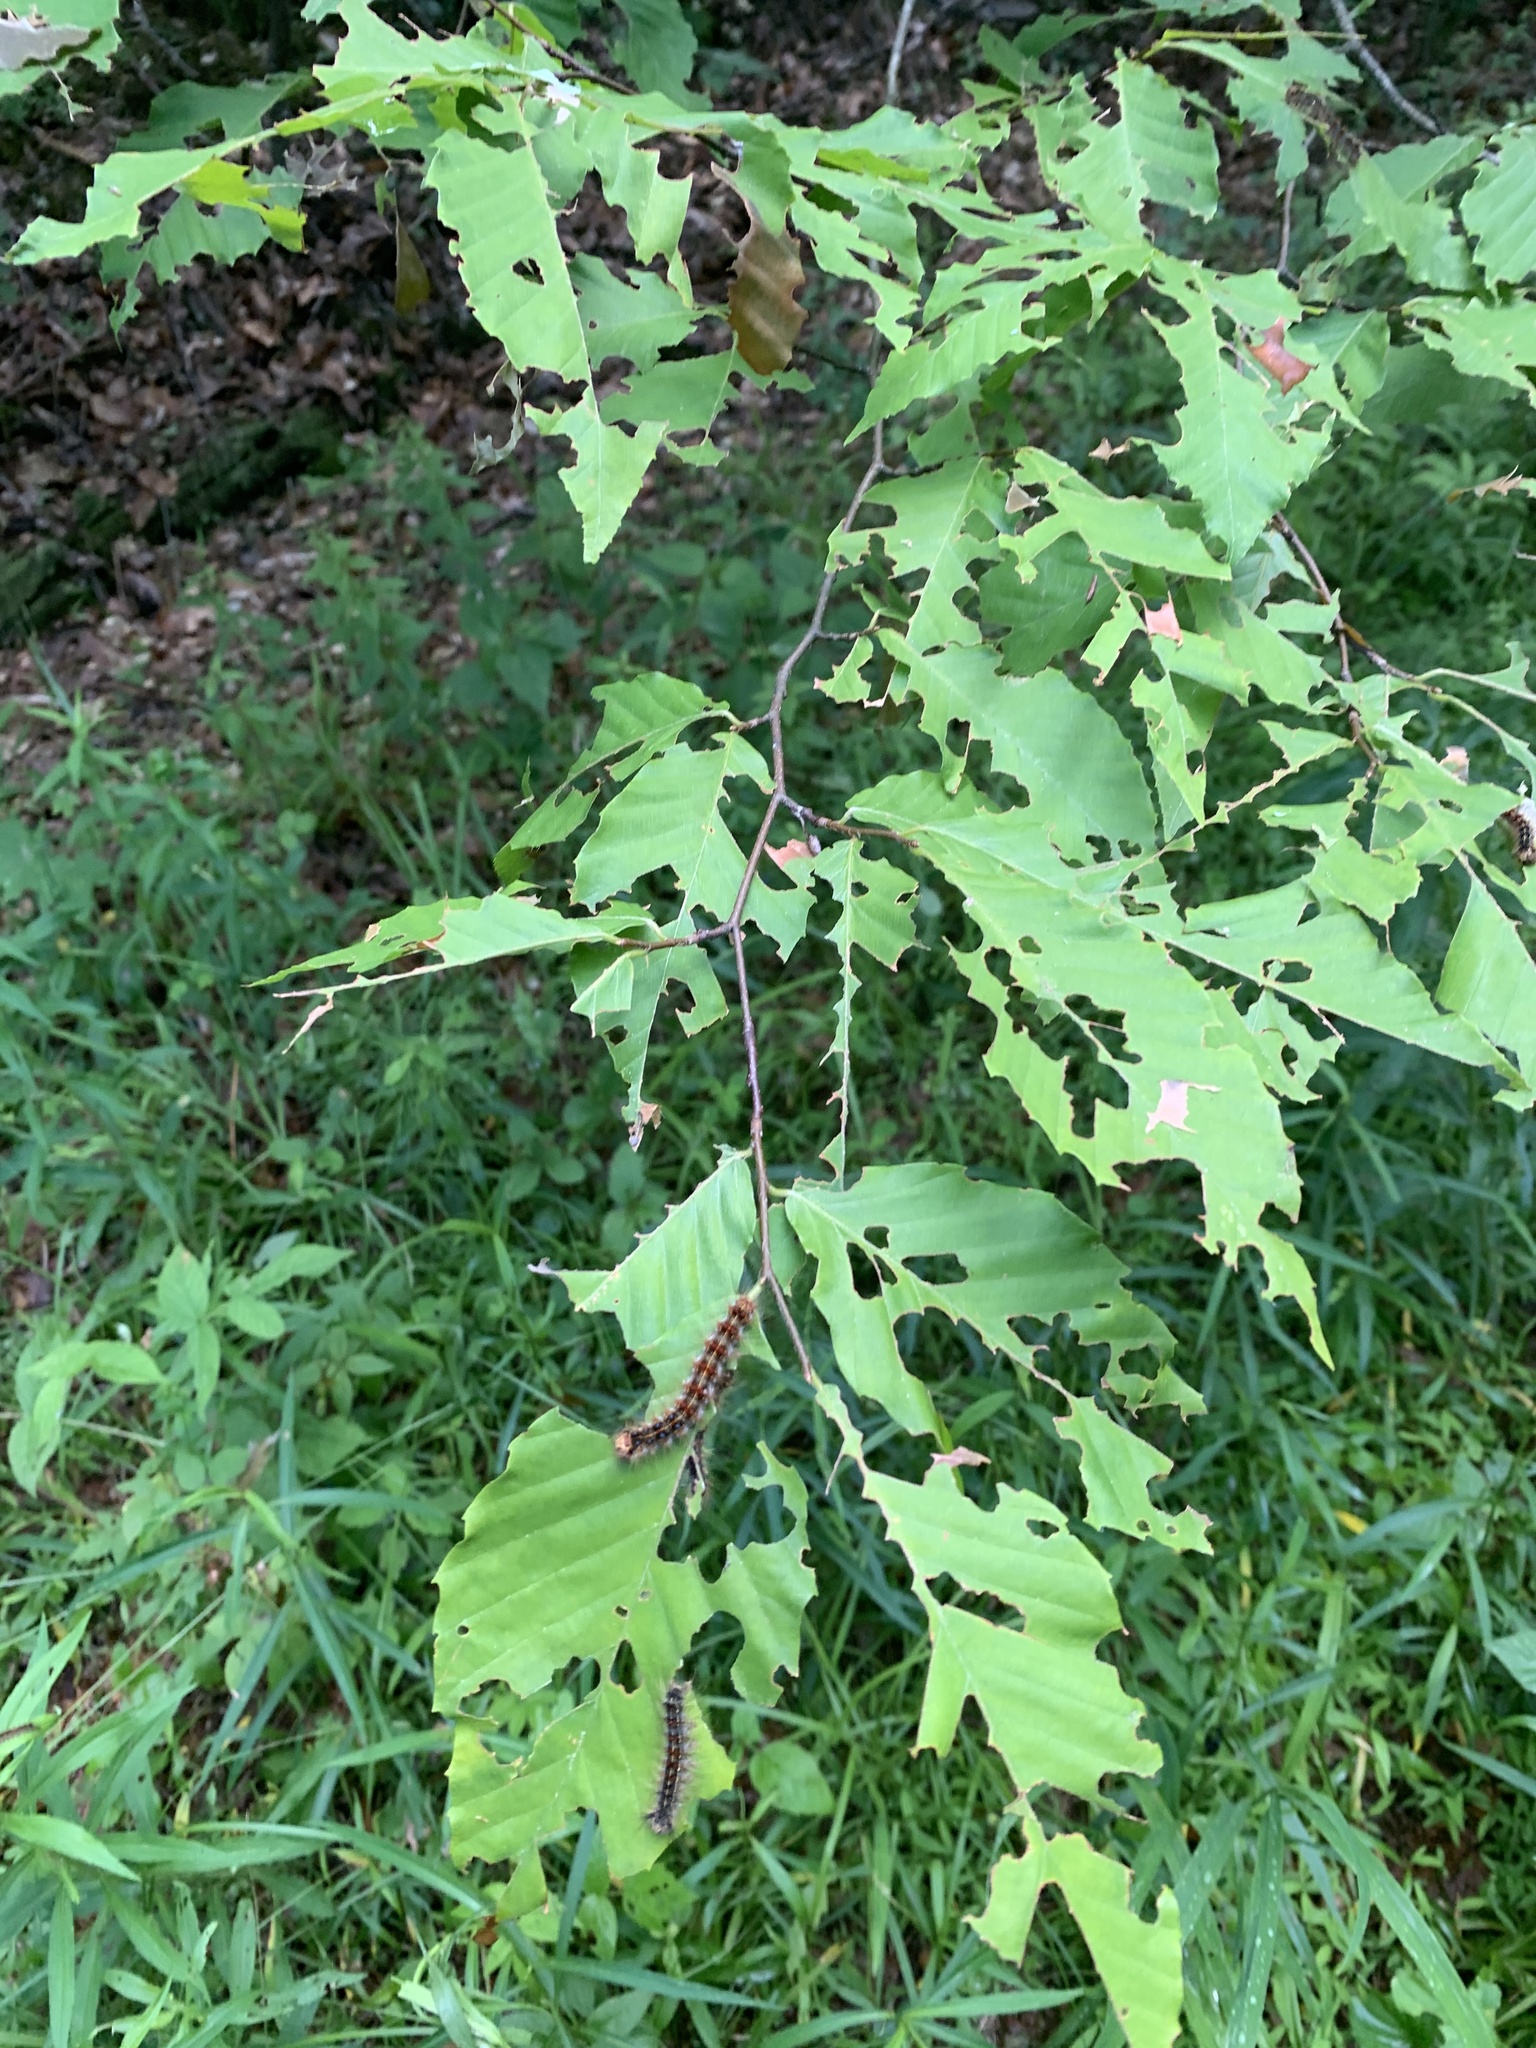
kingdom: Plantae
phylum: Tracheophyta
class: Magnoliopsida
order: Fagales
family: Fagaceae
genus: Fagus
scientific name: Fagus grandifolia
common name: American beech
